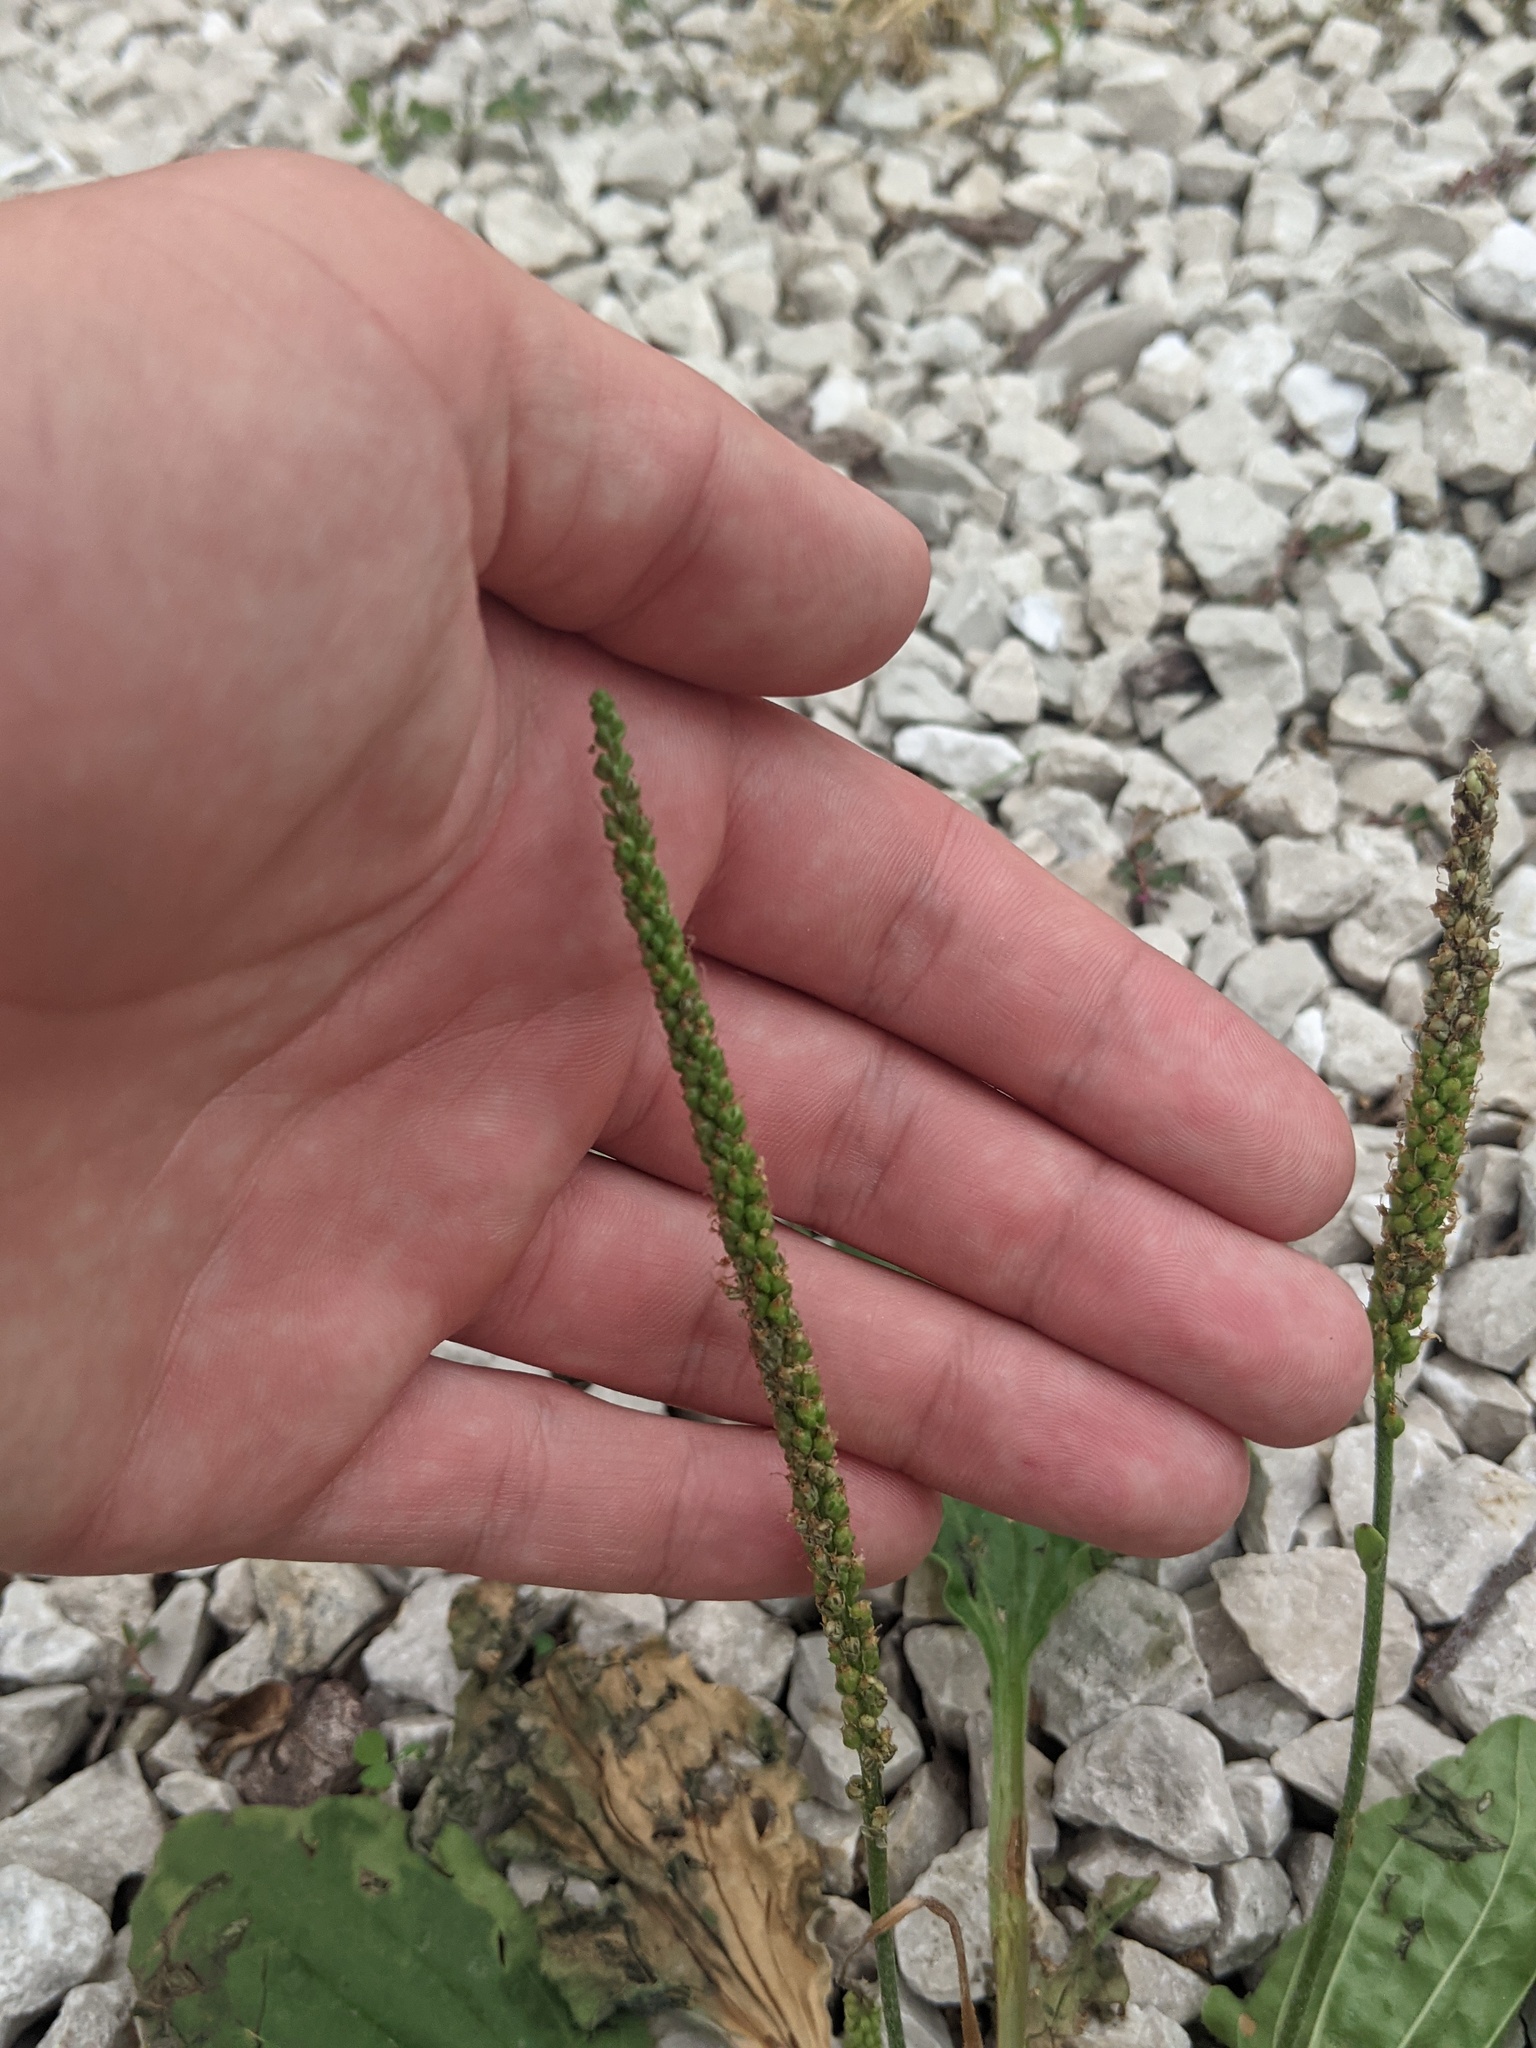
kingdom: Plantae
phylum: Tracheophyta
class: Magnoliopsida
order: Lamiales
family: Plantaginaceae
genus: Plantago
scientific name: Plantago major
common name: Common plantain
